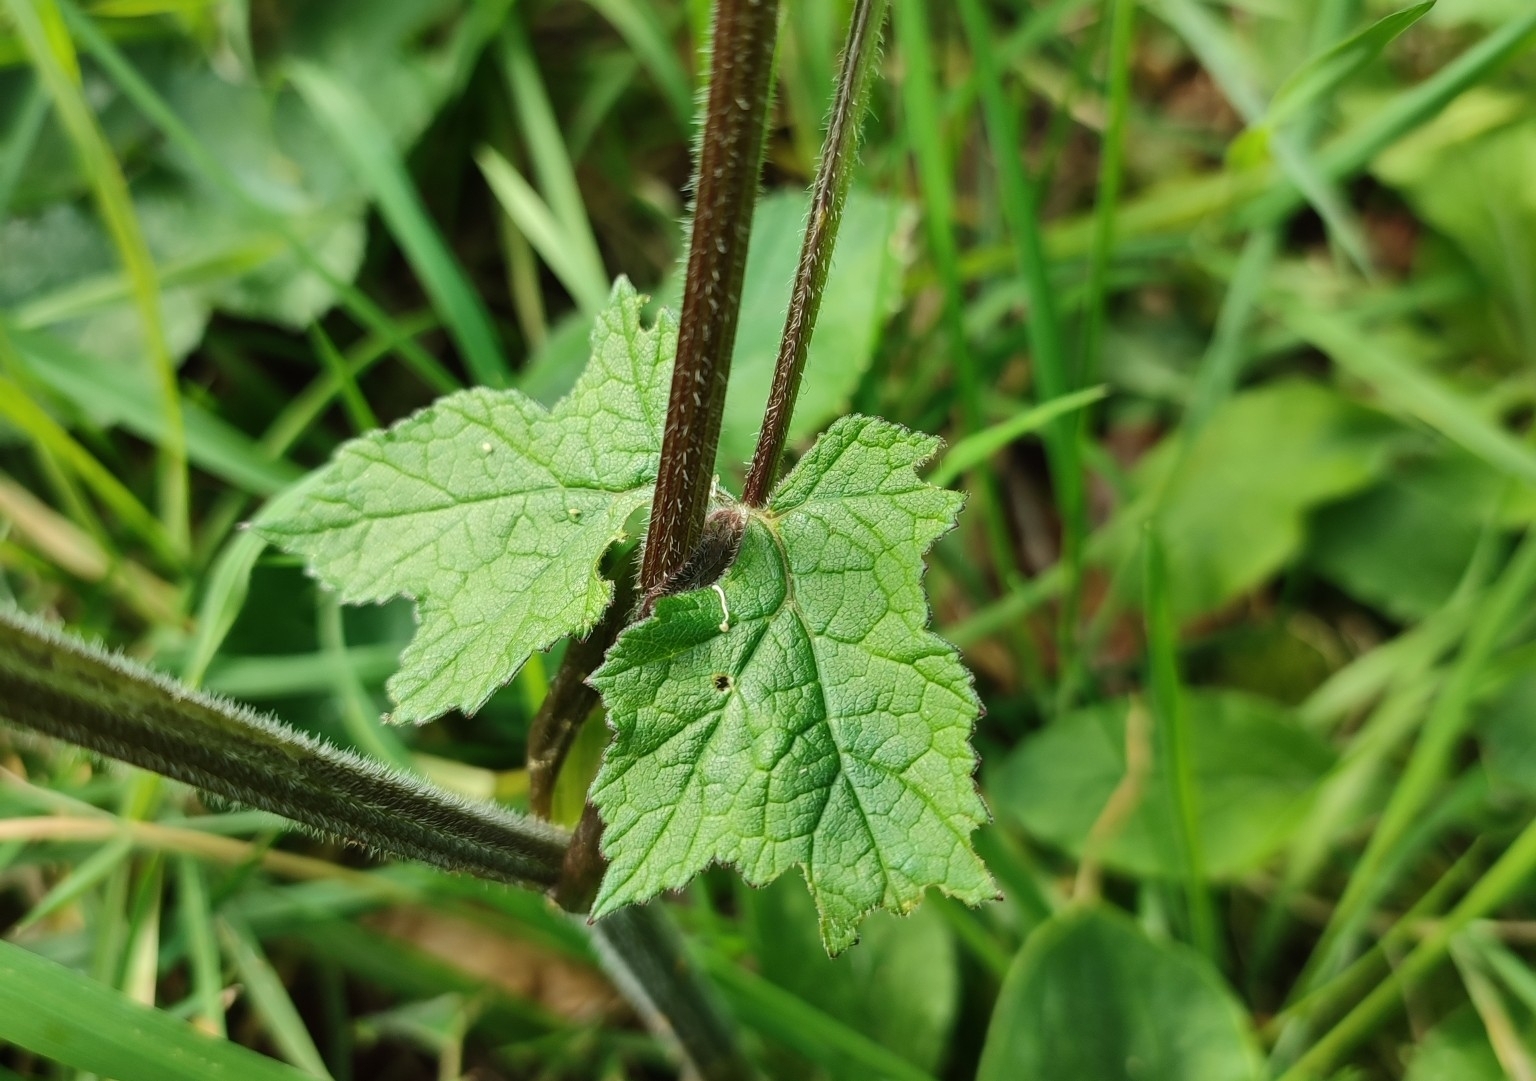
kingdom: Plantae
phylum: Tracheophyta
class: Magnoliopsida
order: Apiales
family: Apiaceae
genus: Heracleum
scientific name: Heracleum sphondylium
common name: Hogweed
